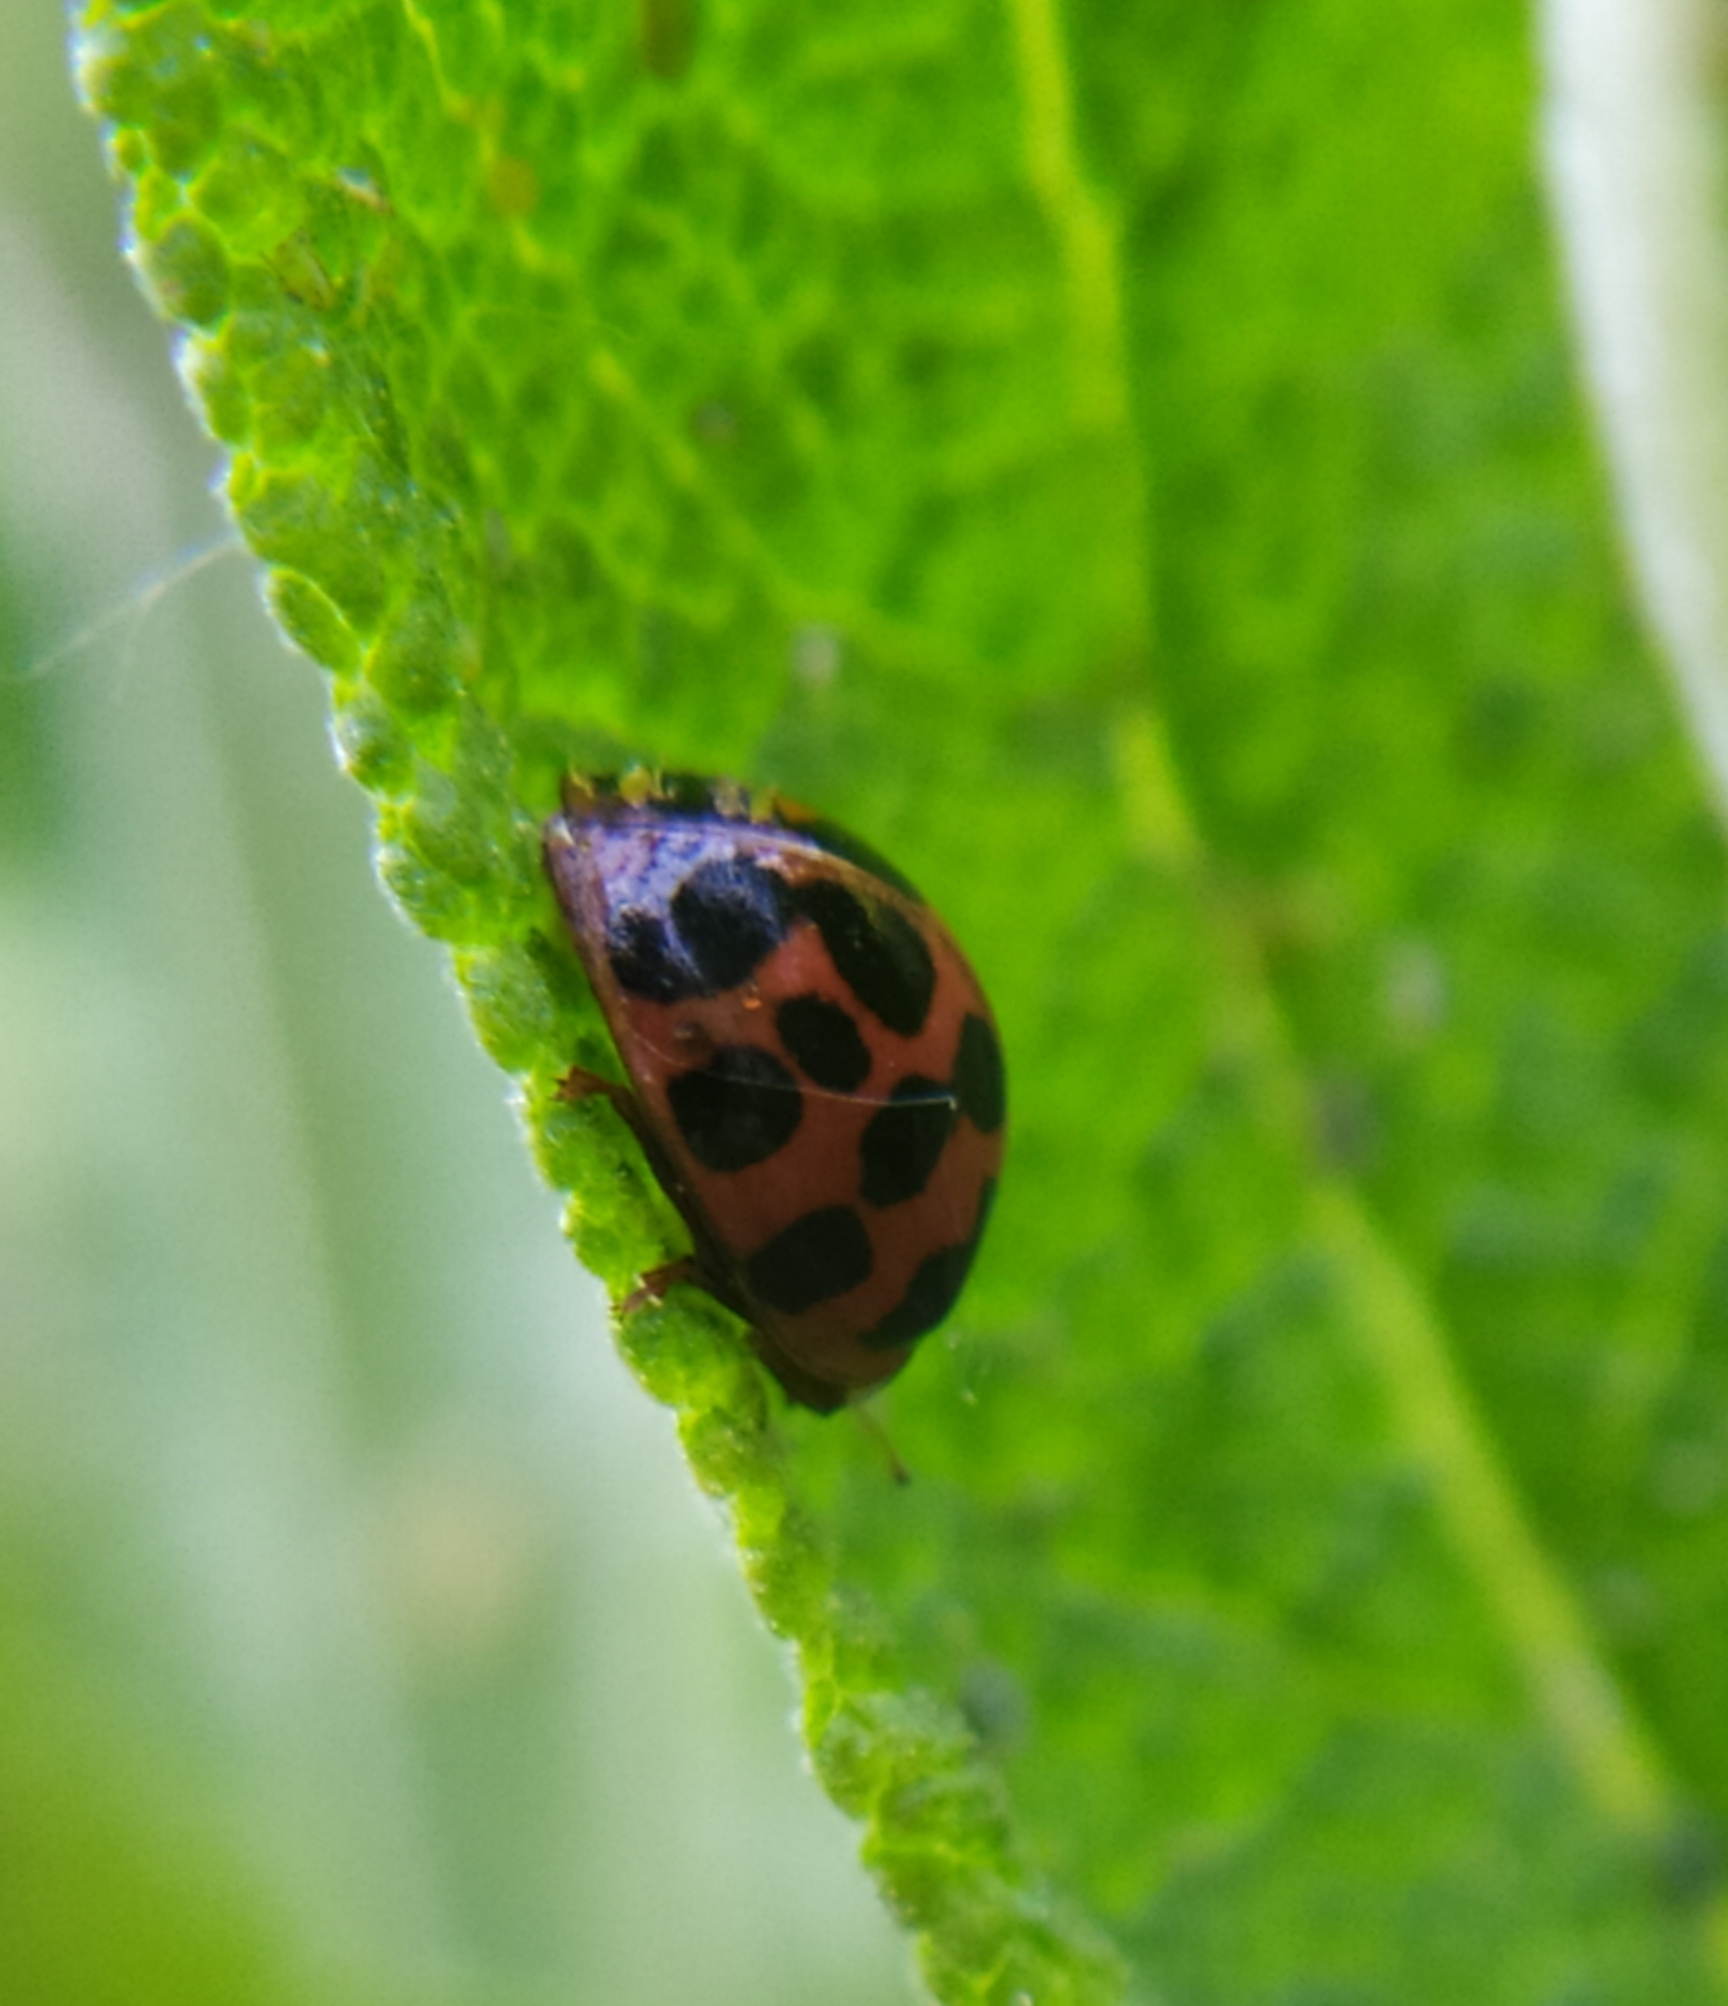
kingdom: Fungi
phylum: Ascomycota
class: Laboulbeniomycetes
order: Laboulbeniales
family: Laboulbeniaceae
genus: Hesperomyces
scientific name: Hesperomyces harmoniae
